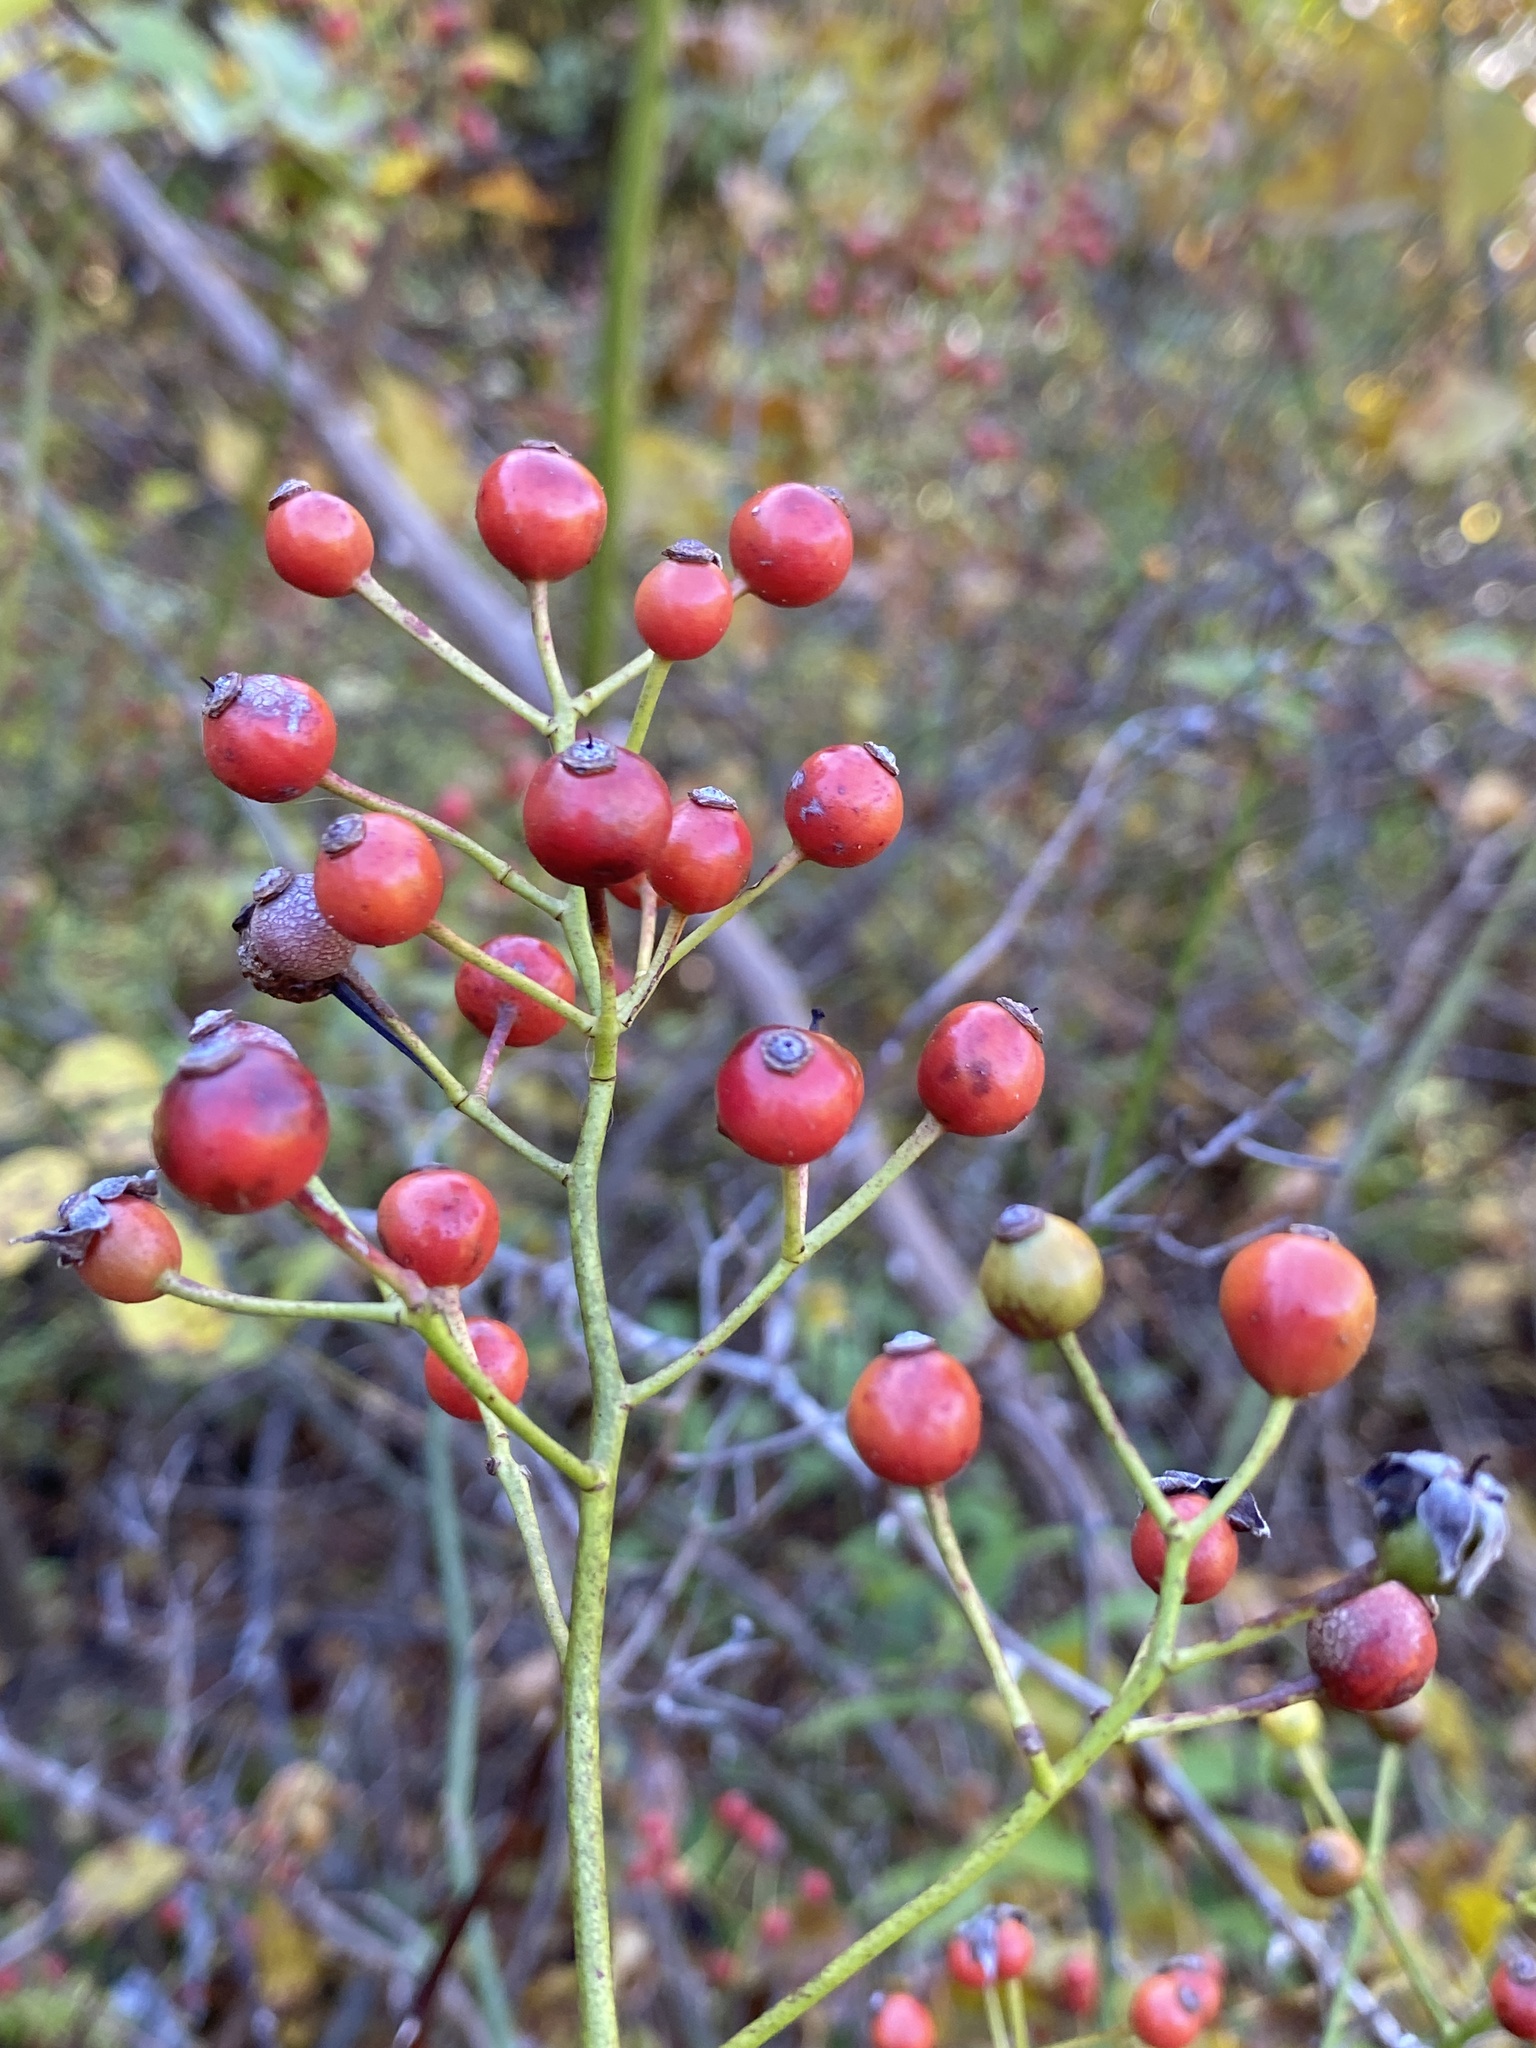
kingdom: Plantae
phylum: Tracheophyta
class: Magnoliopsida
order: Rosales
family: Rosaceae
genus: Rosa
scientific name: Rosa multiflora
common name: Multiflora rose
